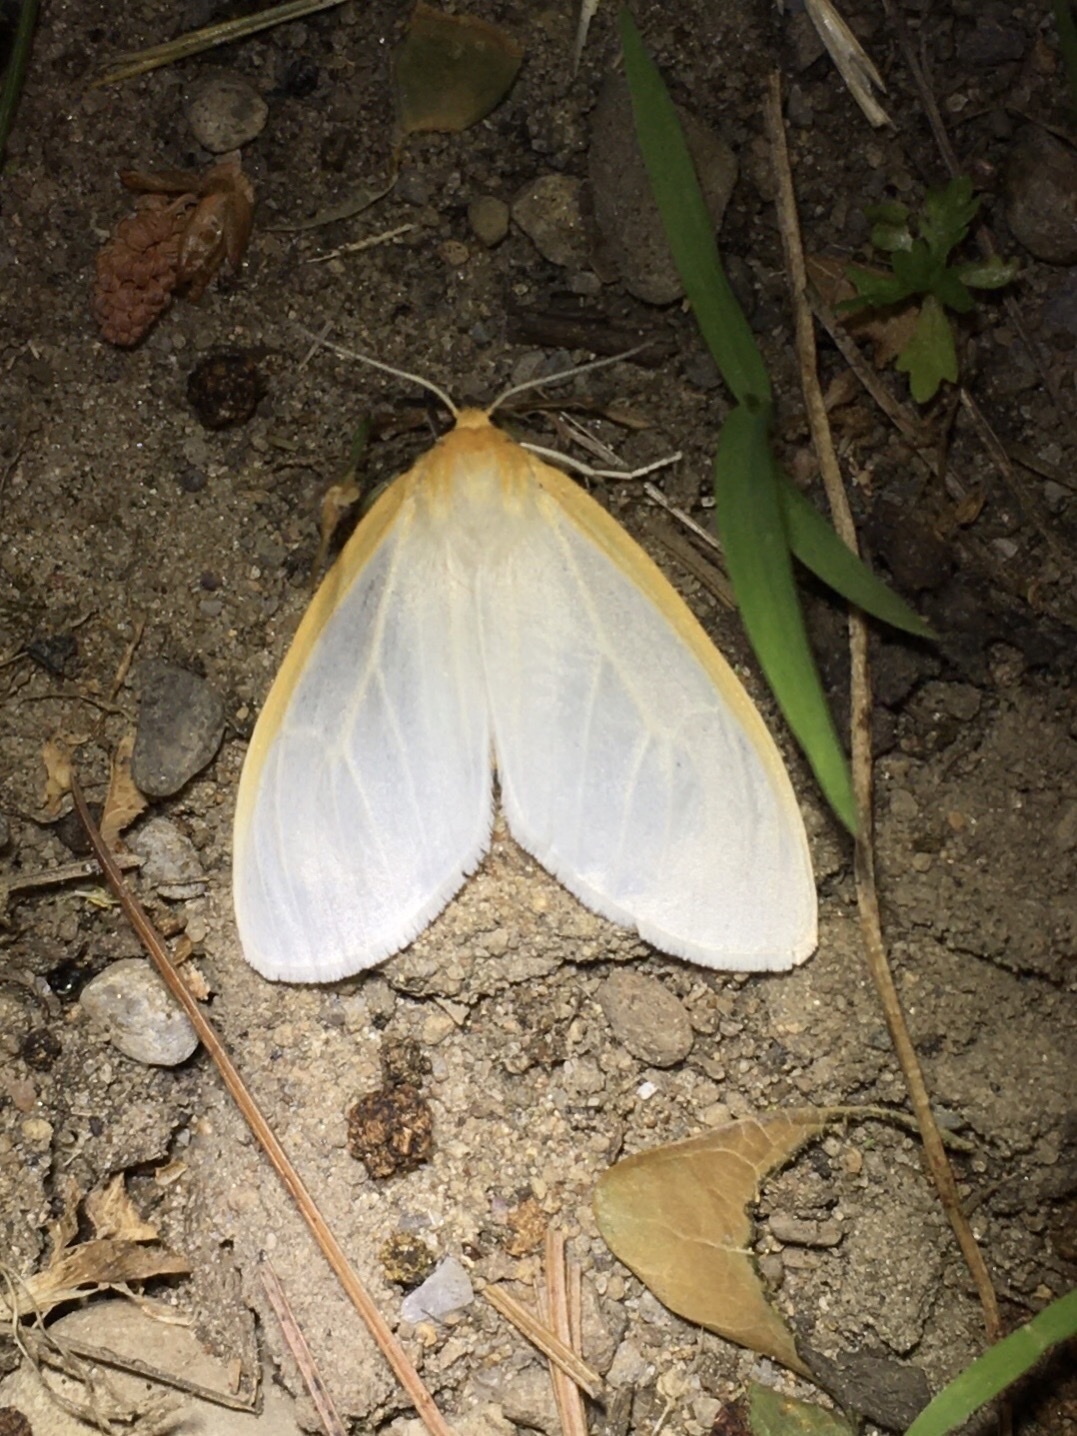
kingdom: Animalia
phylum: Arthropoda
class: Insecta
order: Lepidoptera
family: Erebidae
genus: Cycnia
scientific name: Cycnia tenera
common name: Delicate cycnia moth
